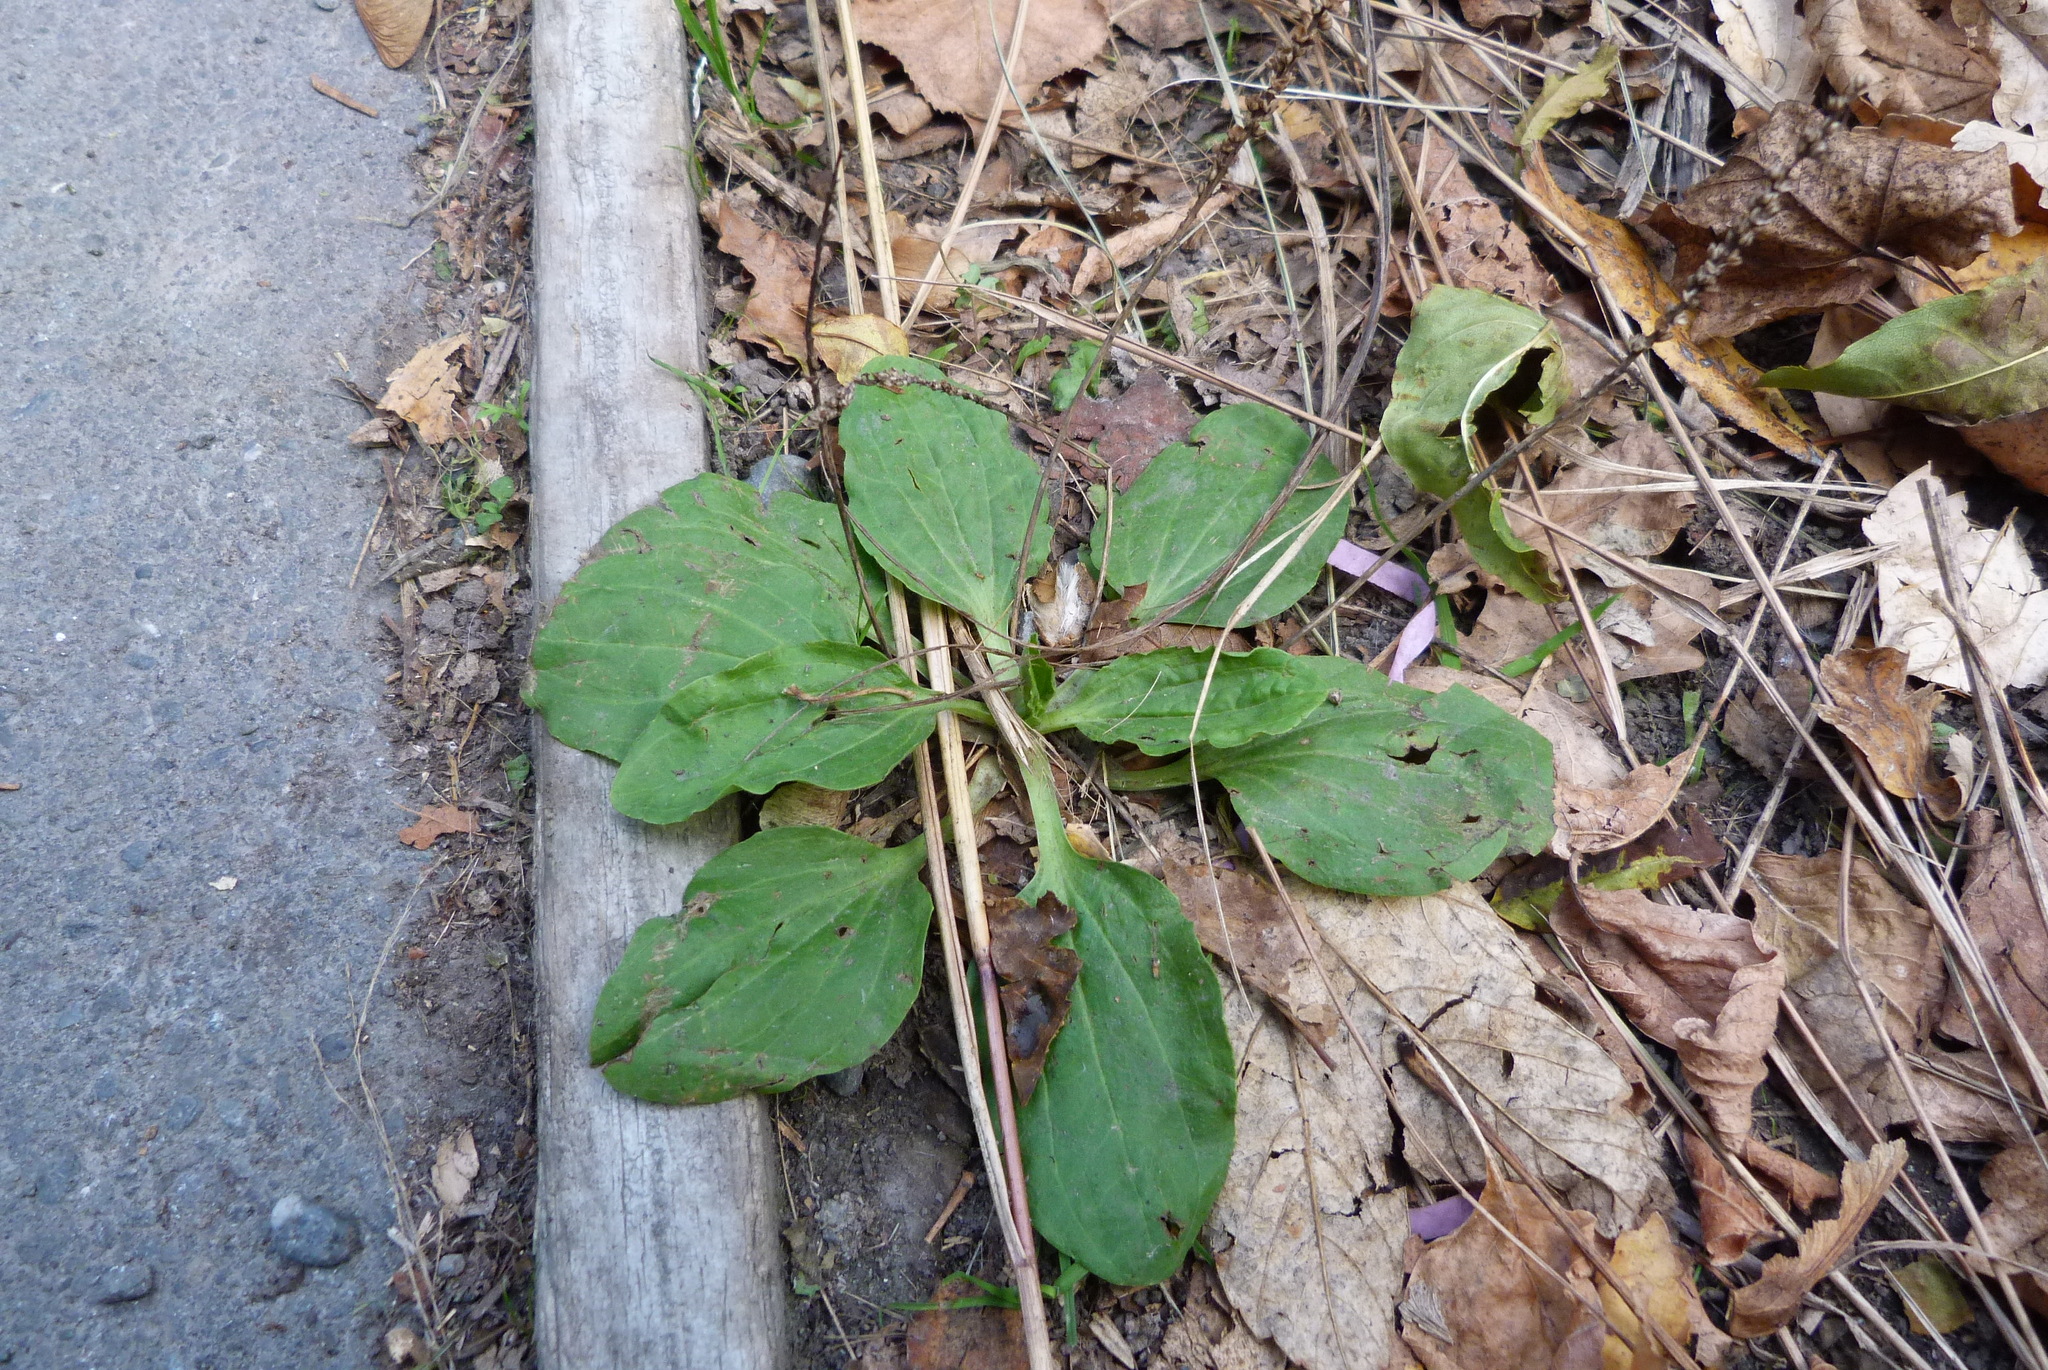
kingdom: Plantae
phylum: Tracheophyta
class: Magnoliopsida
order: Lamiales
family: Plantaginaceae
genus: Plantago
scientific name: Plantago major
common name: Common plantain
